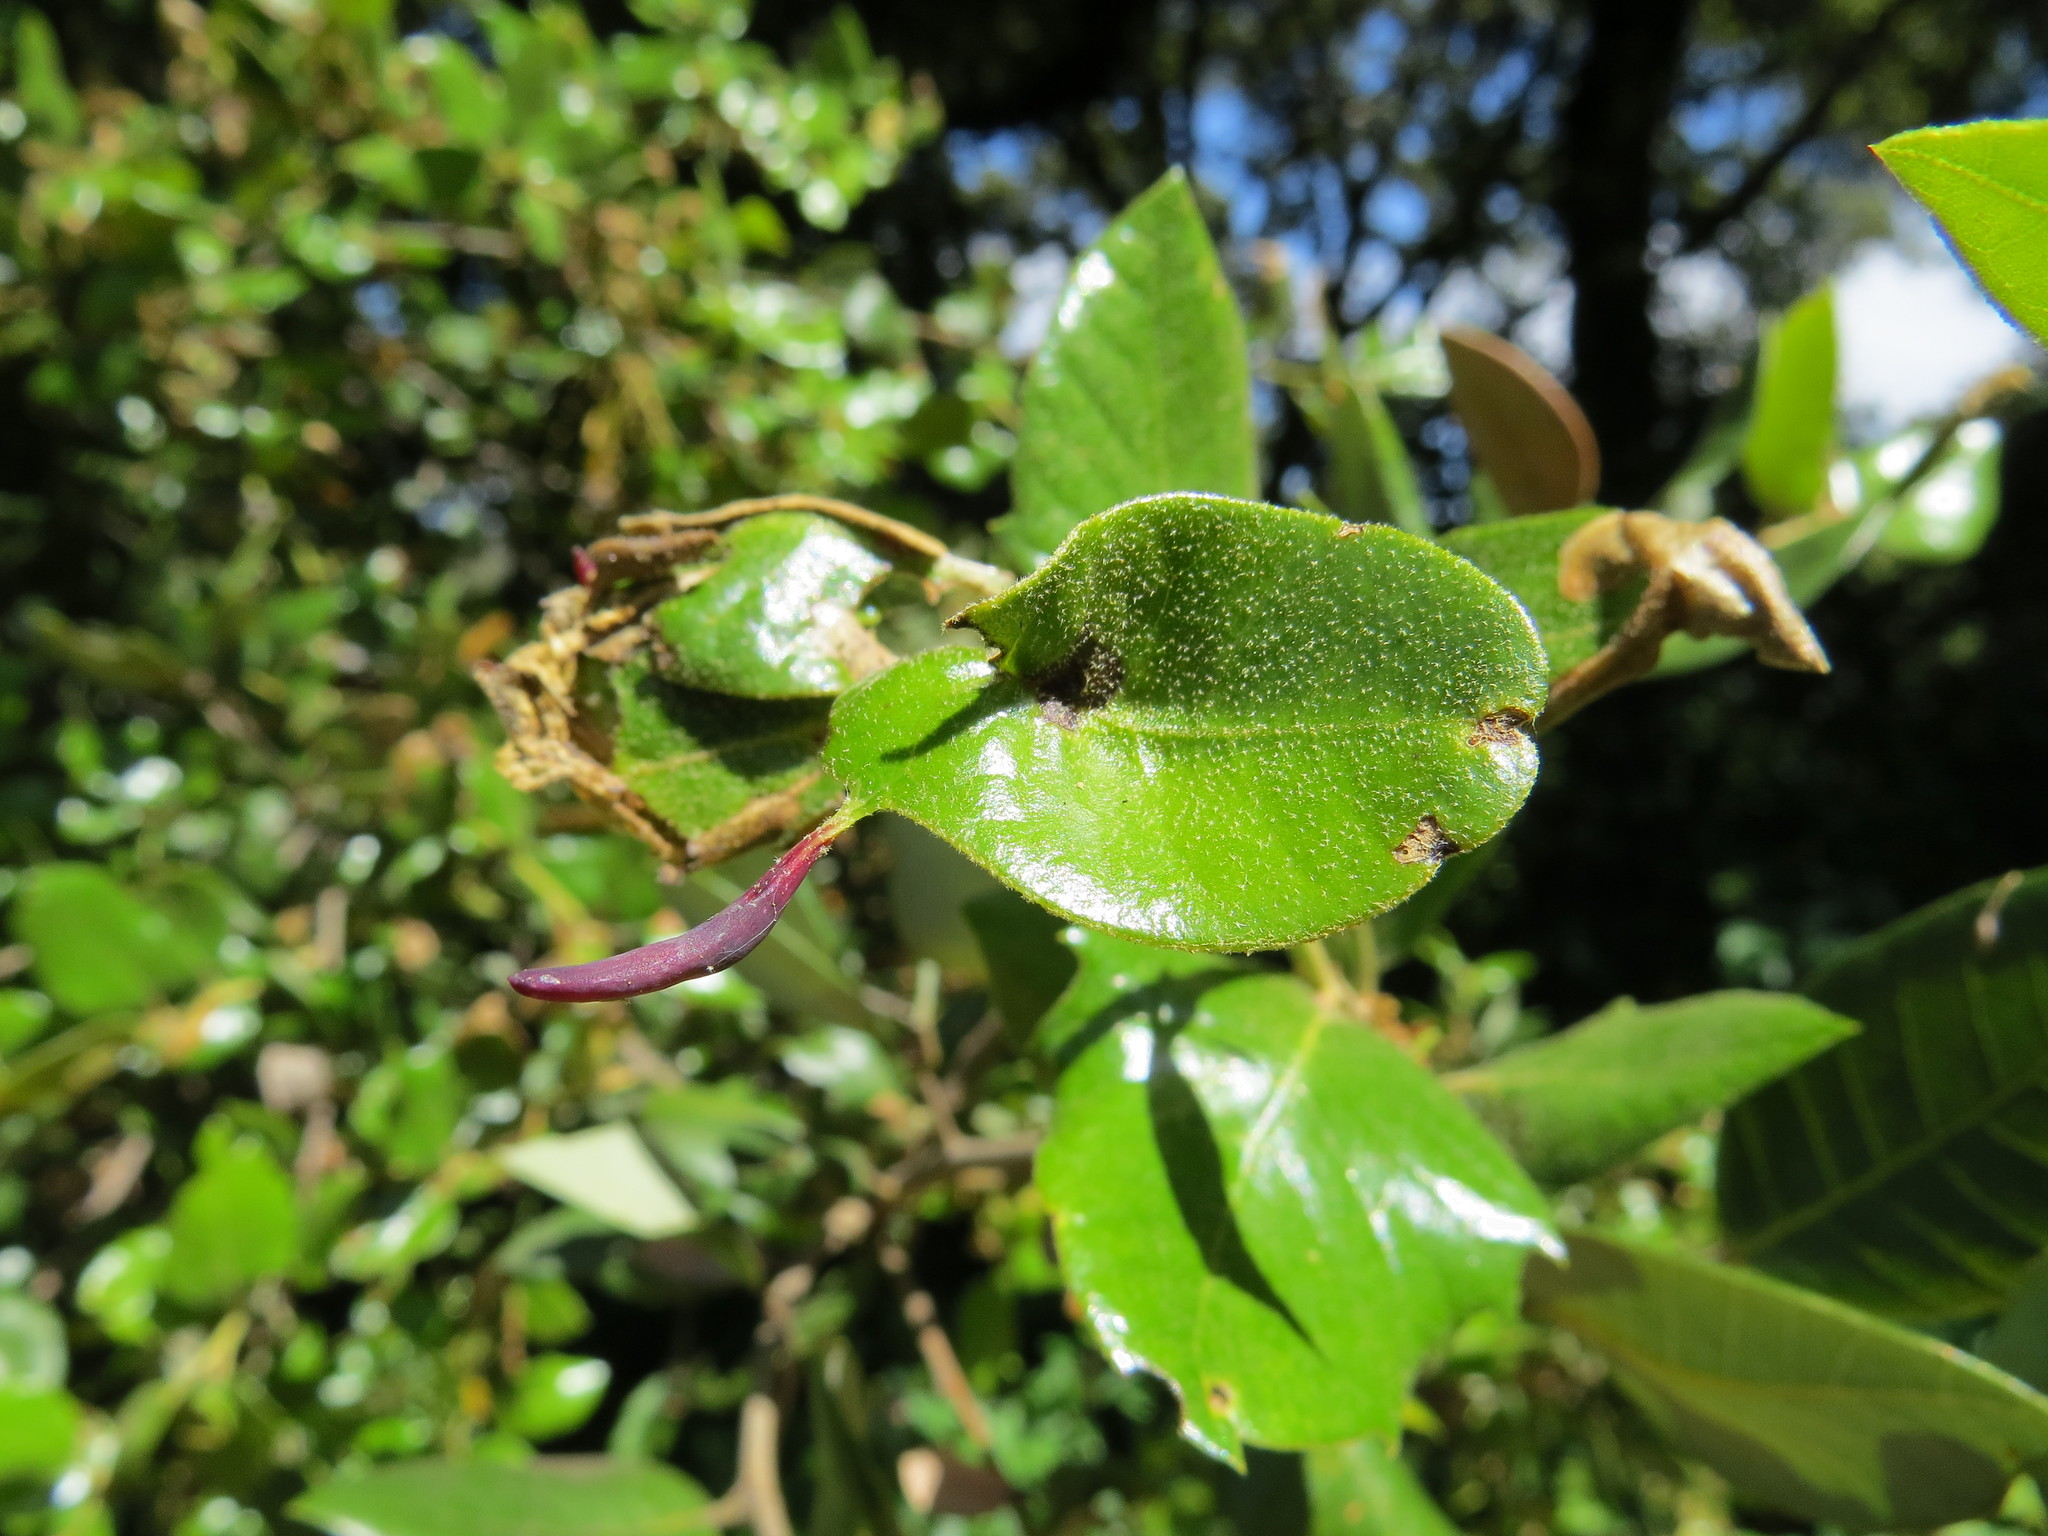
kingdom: Animalia
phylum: Arthropoda
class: Insecta
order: Hymenoptera
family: Cynipidae
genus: Heteroecus
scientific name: Heteroecus
